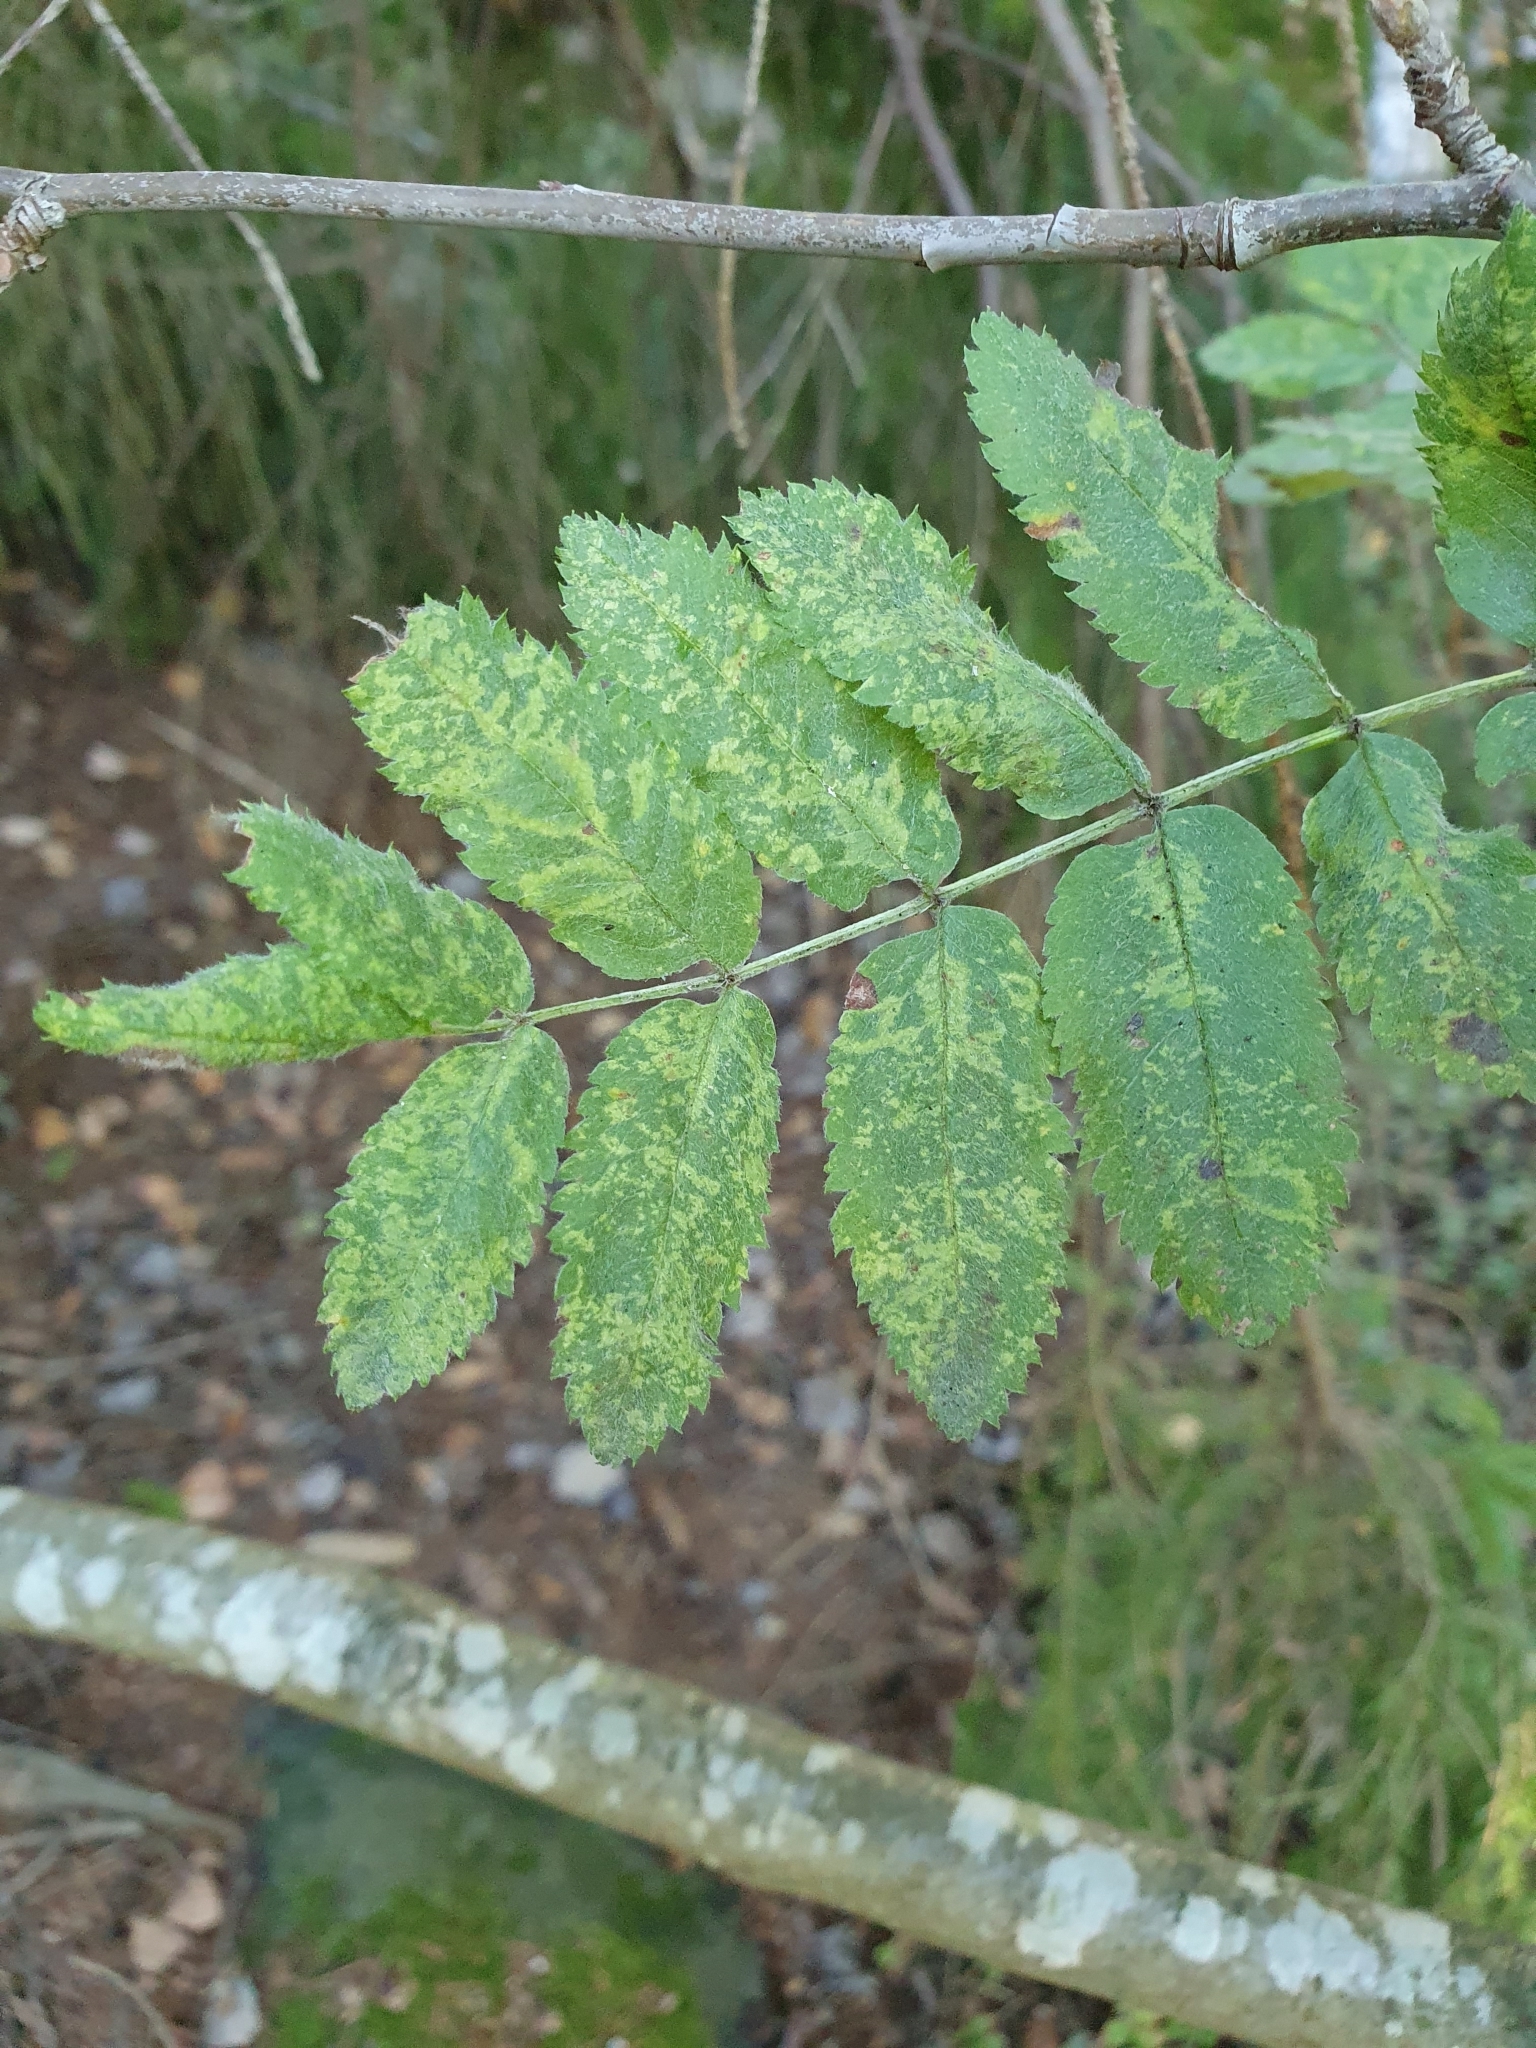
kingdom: Viruses
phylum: Negarnaviricota
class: Ellioviricetes
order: Bunyavirales
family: Fimoviridae
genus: Emaravirus
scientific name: Emaravirus sorbi
